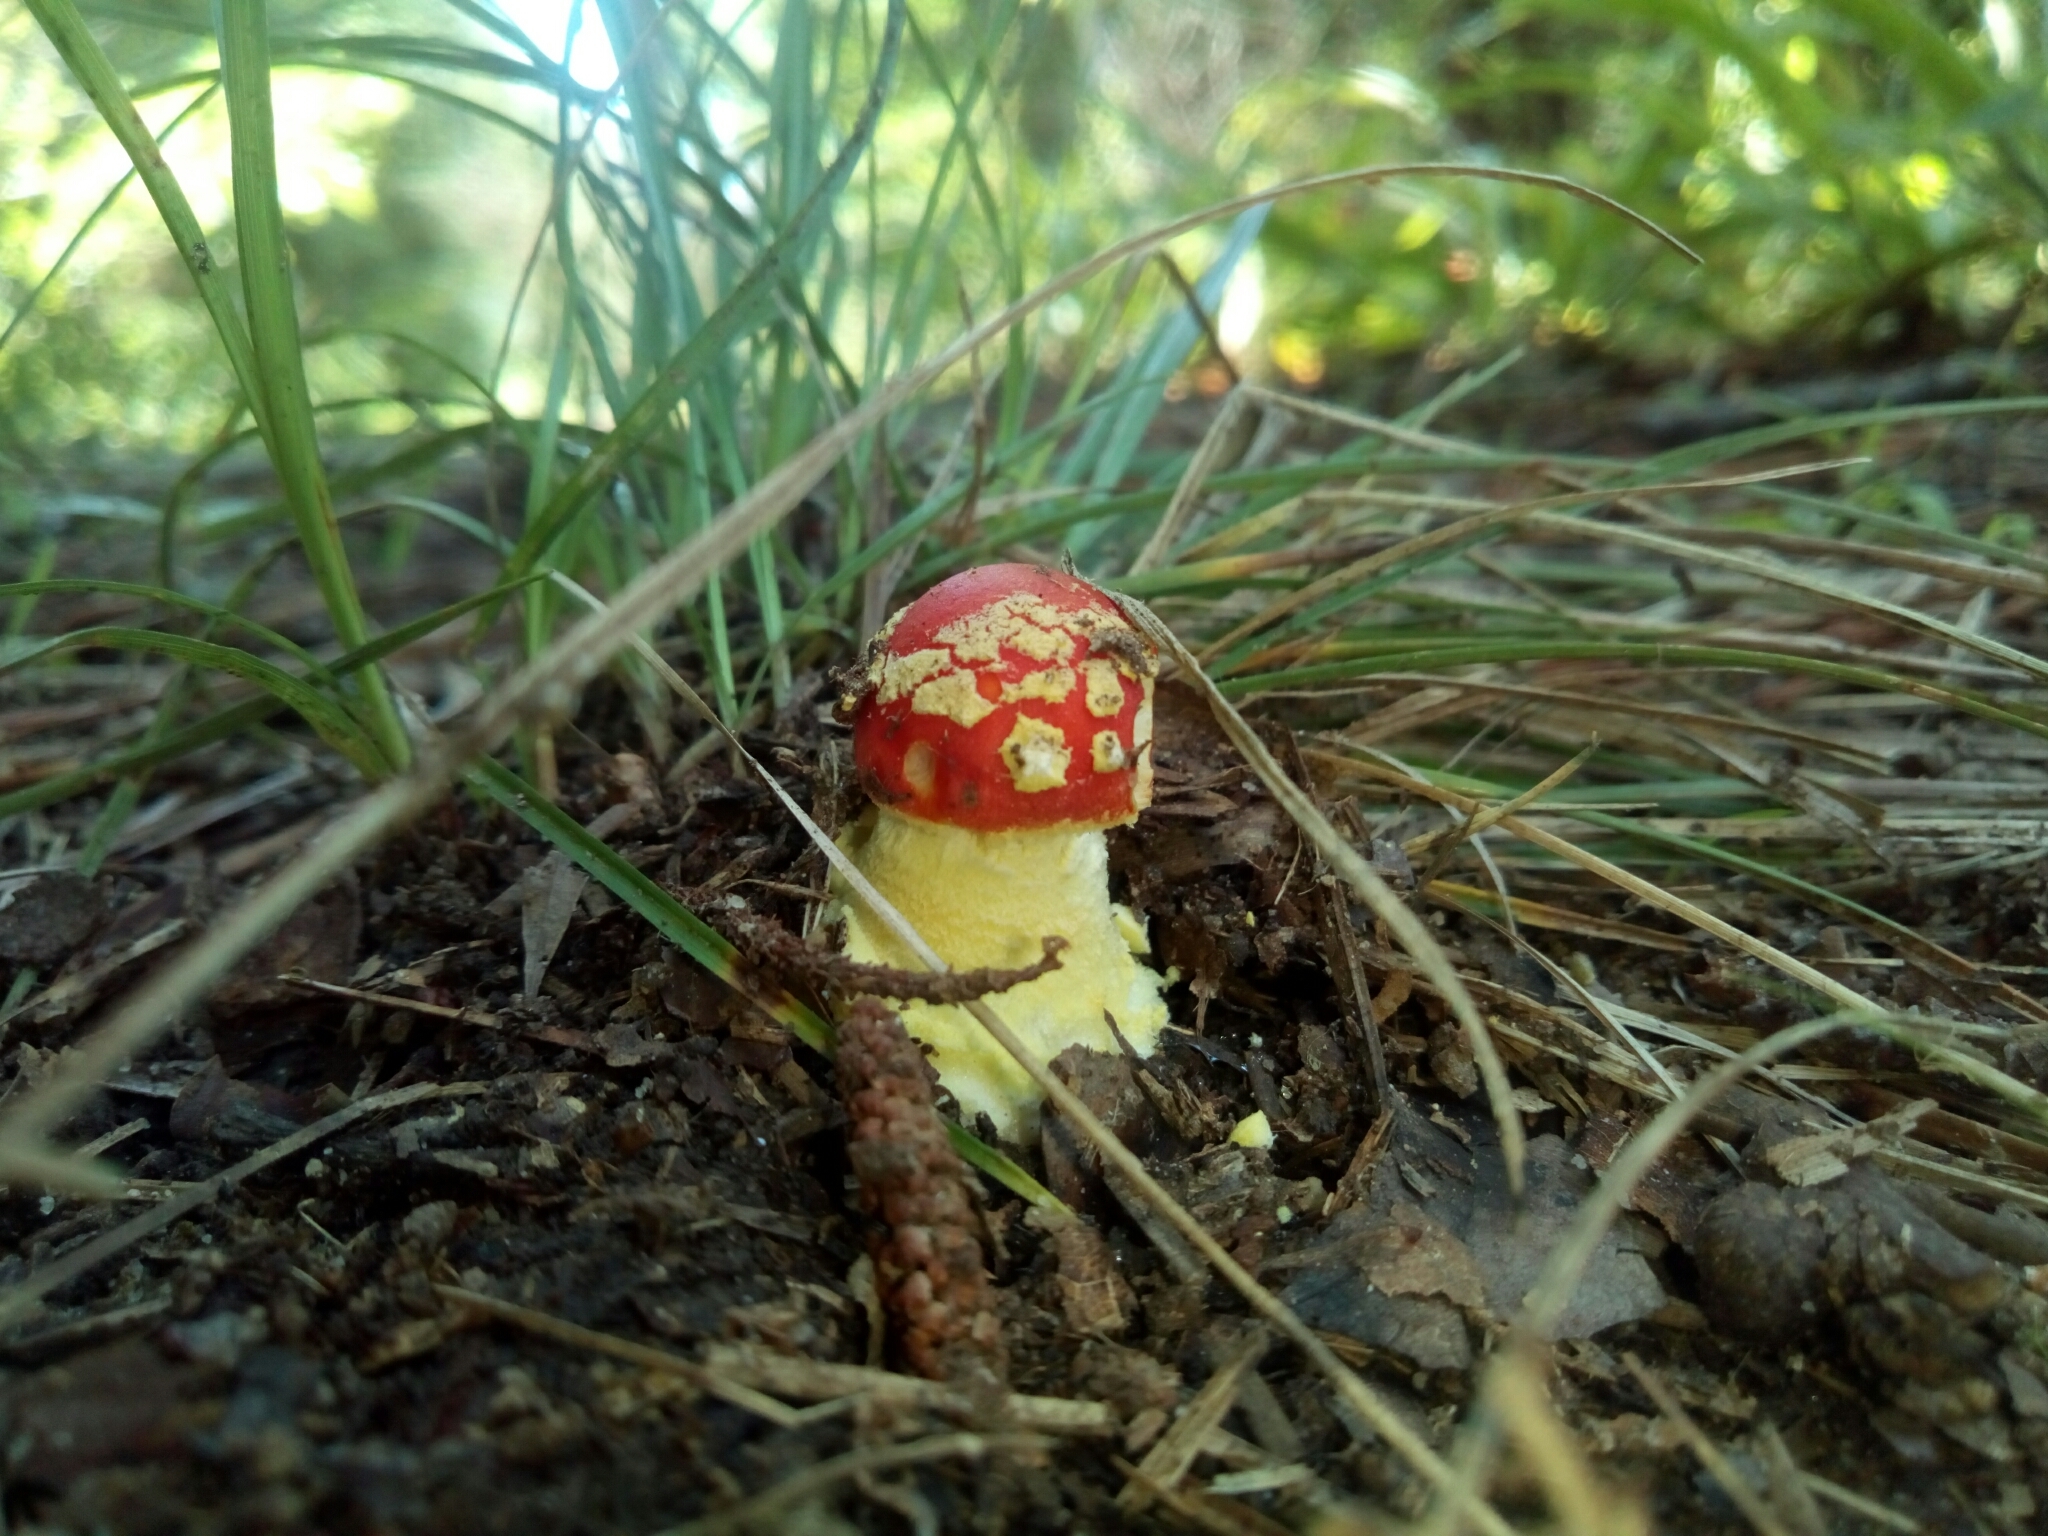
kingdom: Fungi
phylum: Basidiomycota
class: Agaricomycetes
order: Agaricales
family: Amanitaceae
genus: Amanita
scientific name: Amanita parcivolvata
